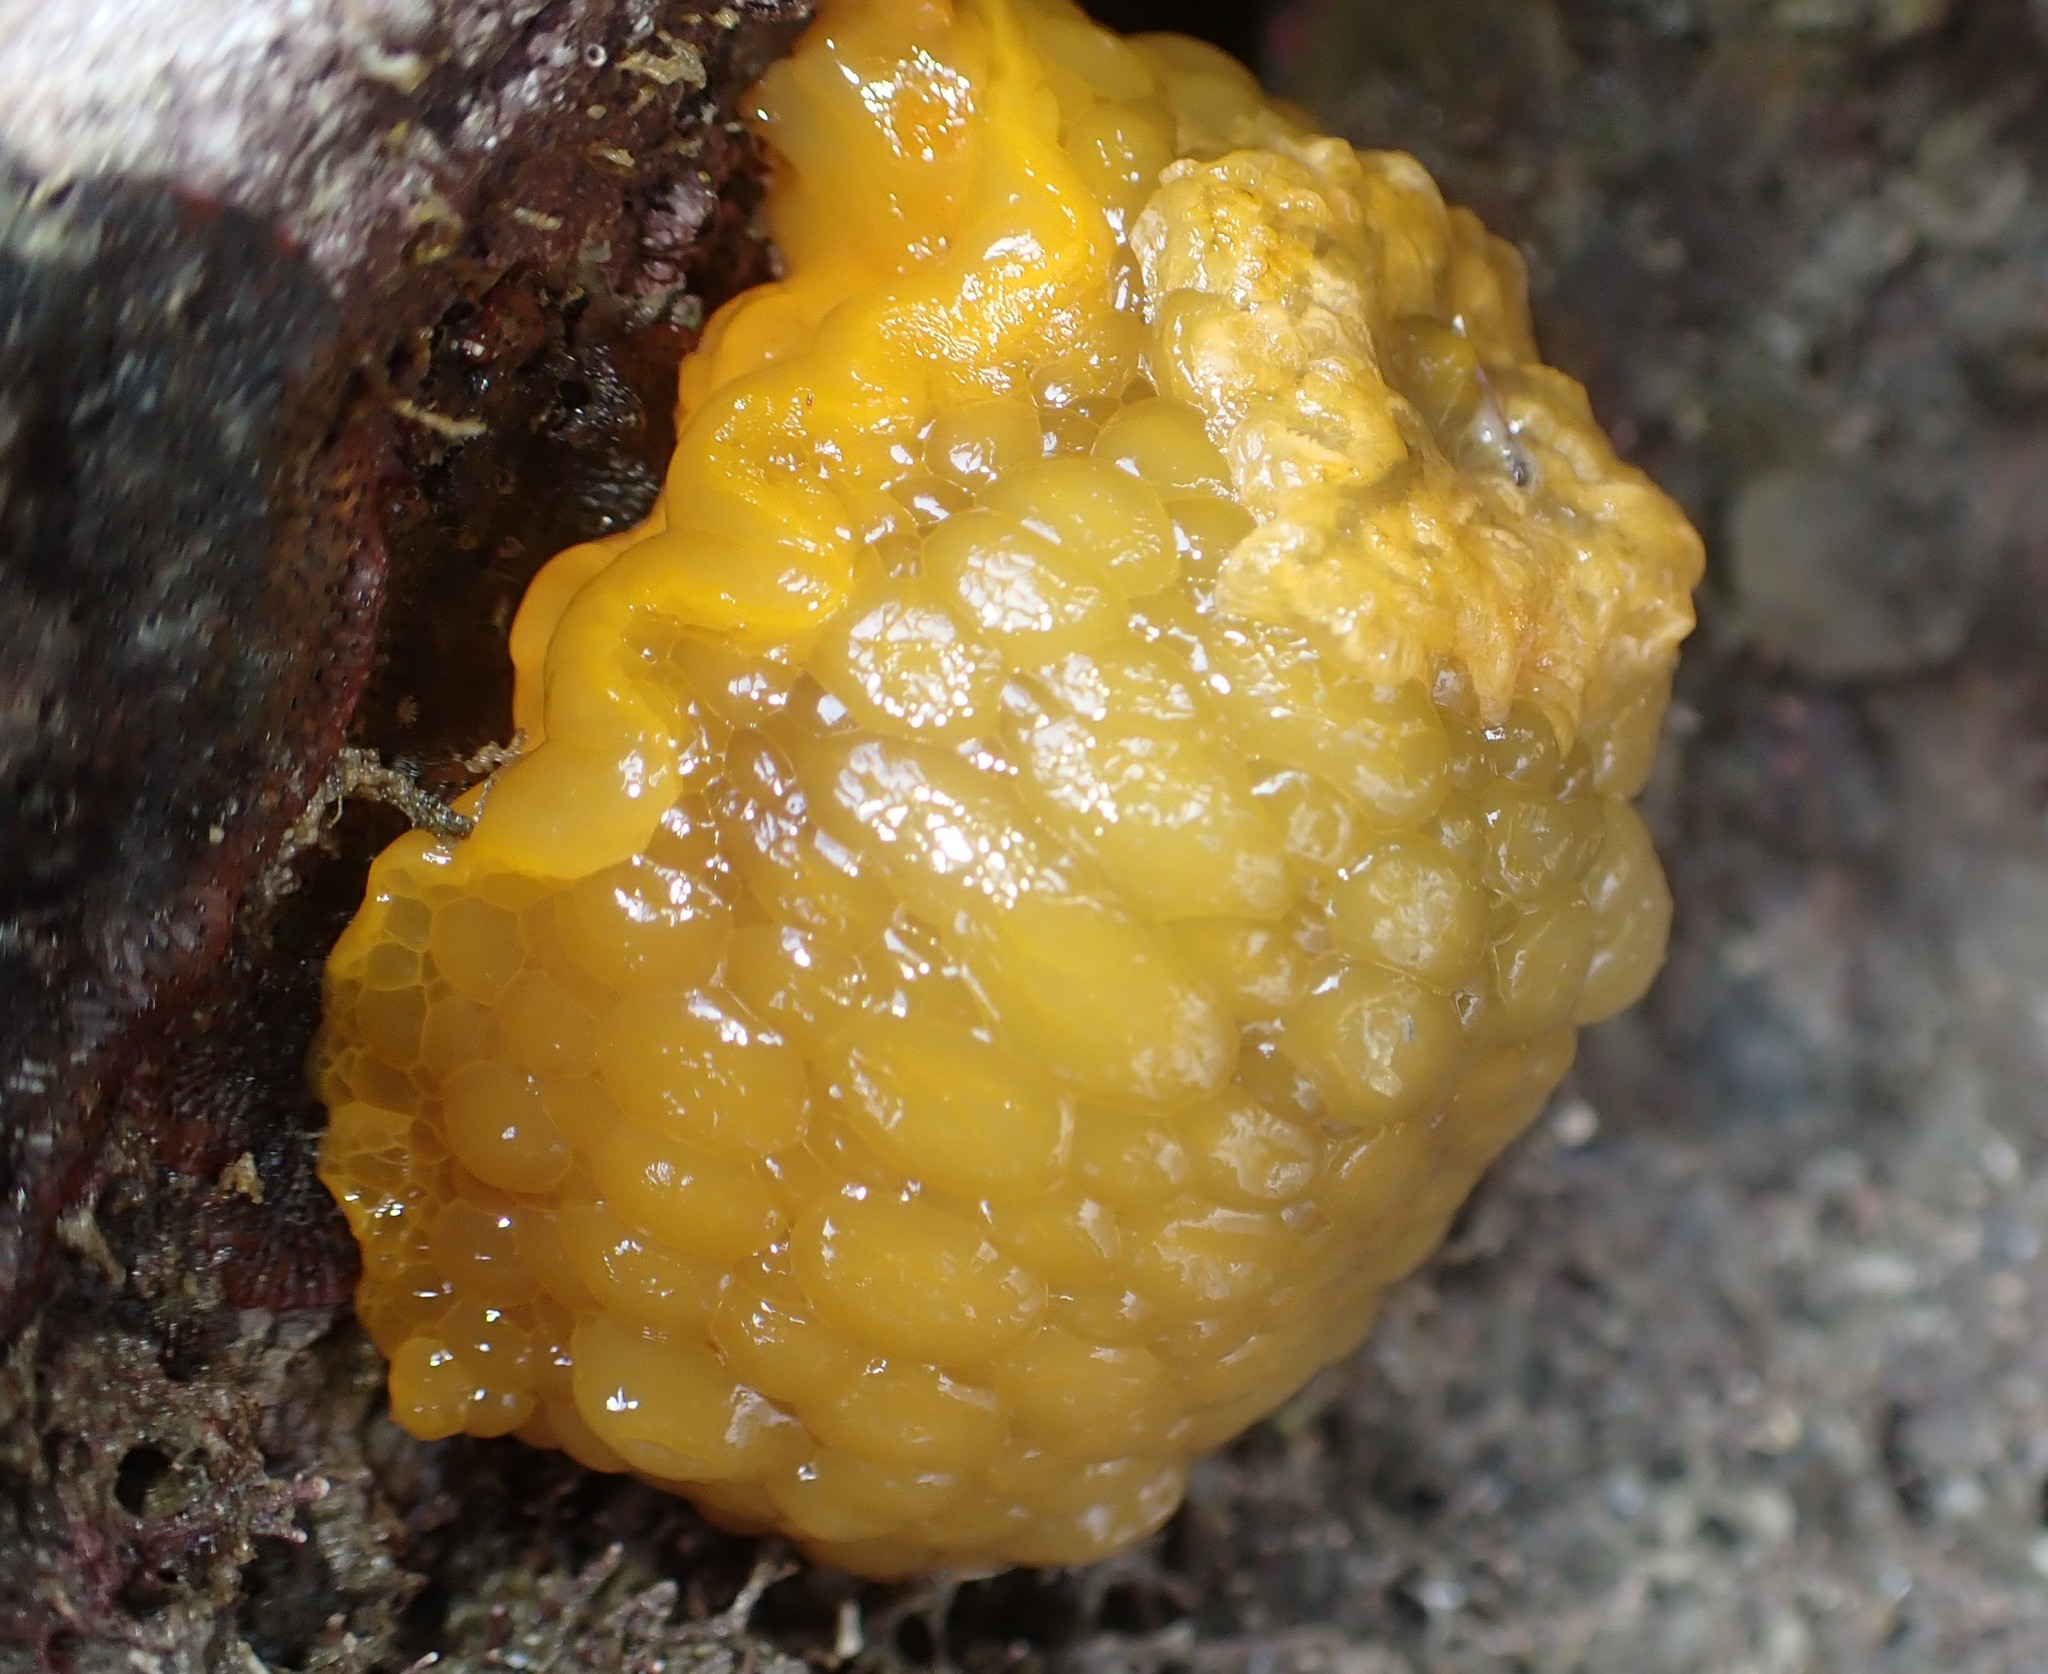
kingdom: Animalia
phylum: Mollusca
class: Gastropoda
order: Nudibranchia
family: Dorididae
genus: Doris
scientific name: Doris wellingtonensis
